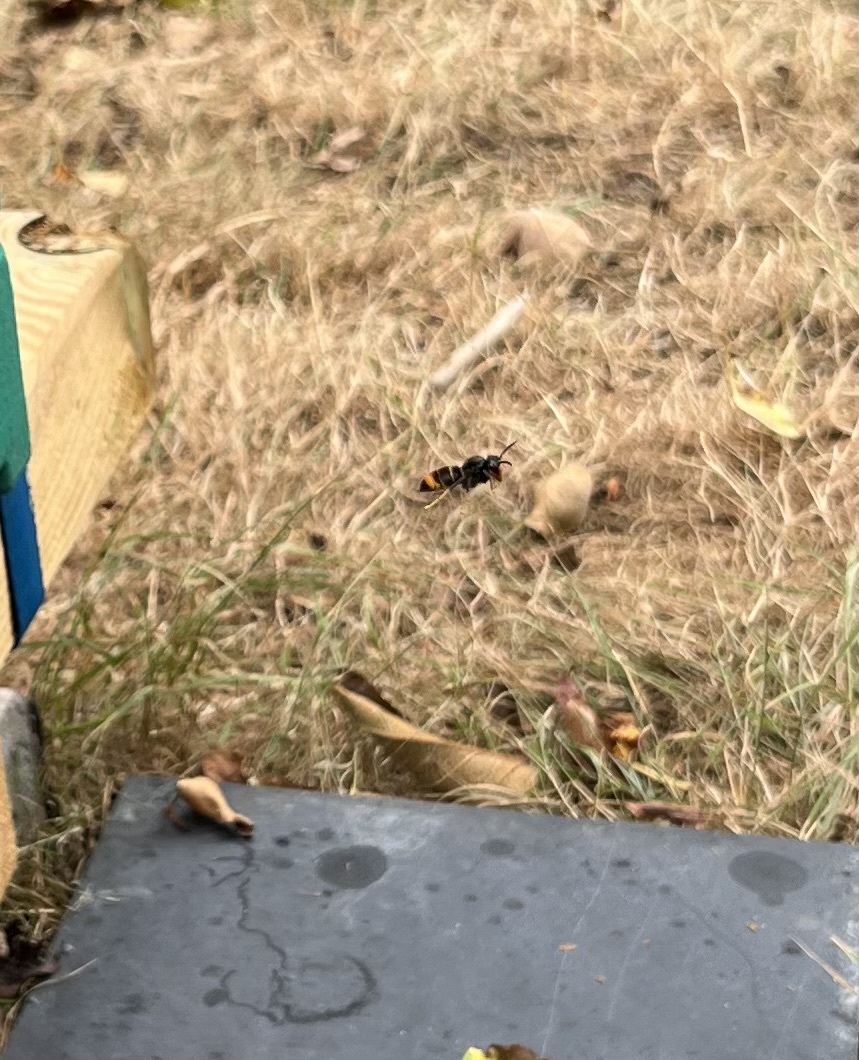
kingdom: Animalia
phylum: Arthropoda
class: Insecta
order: Hymenoptera
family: Vespidae
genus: Vespa
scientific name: Vespa velutina
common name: Asian hornet
